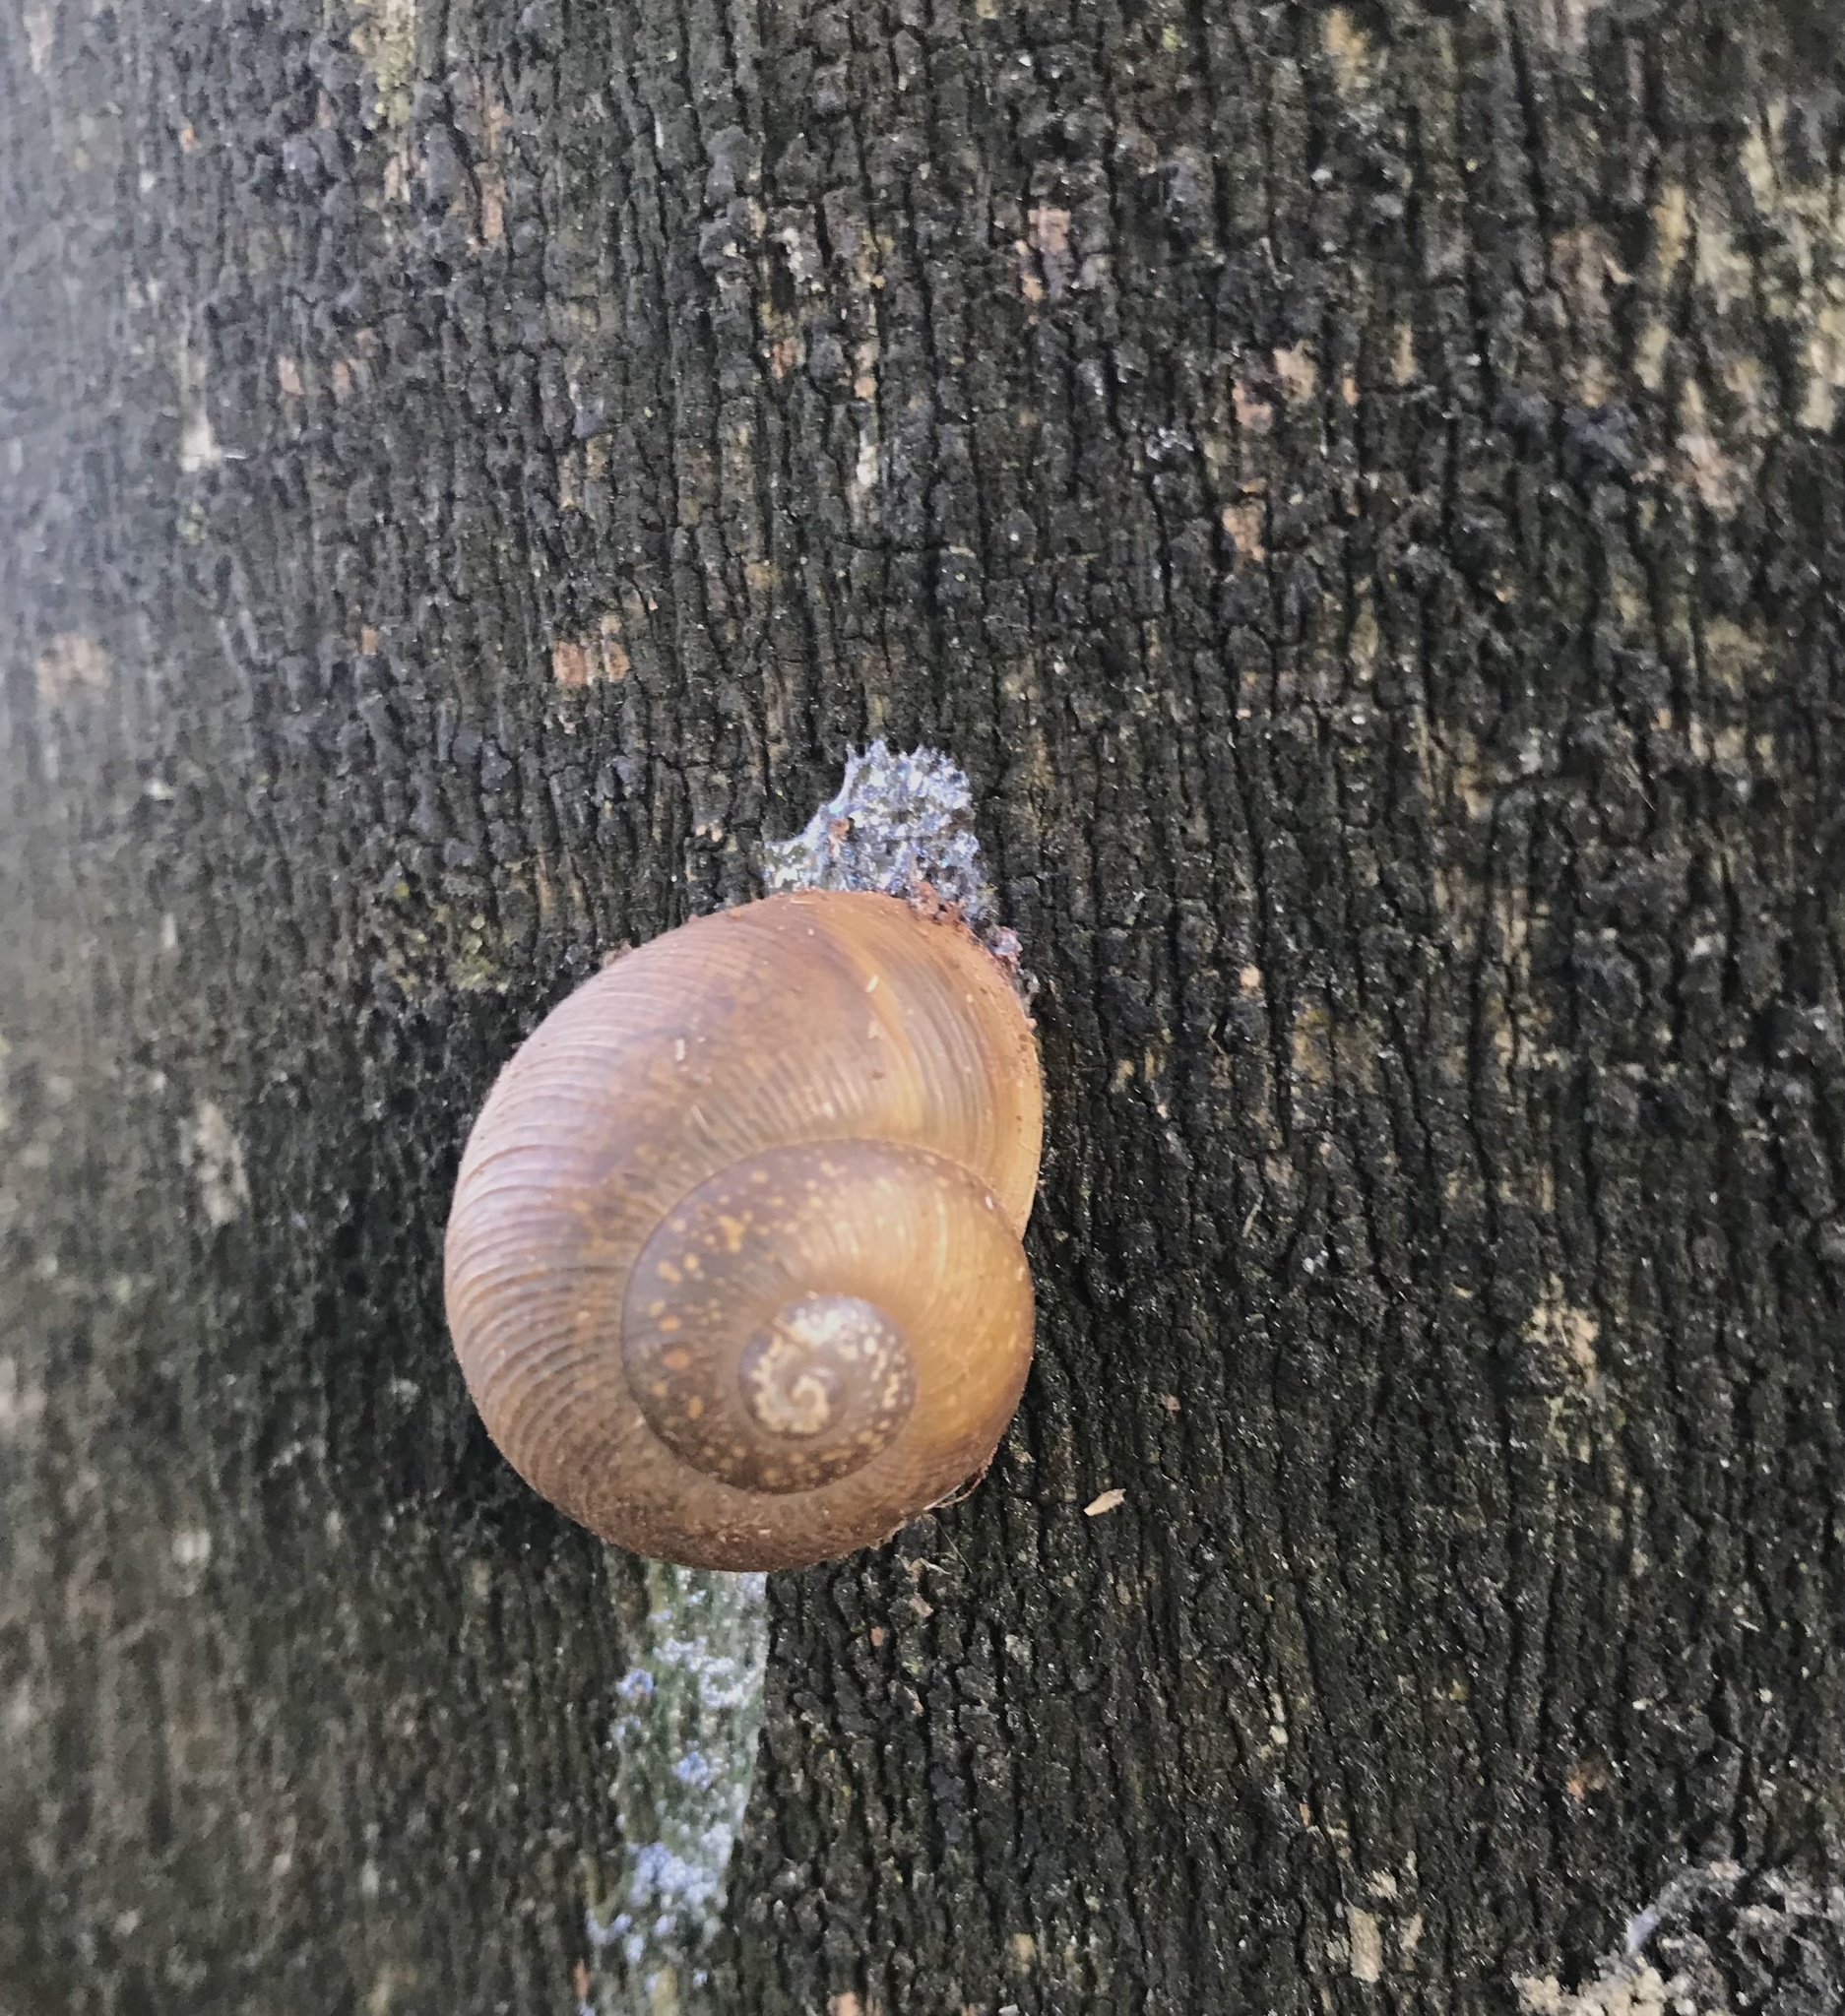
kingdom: Animalia
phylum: Mollusca
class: Gastropoda
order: Stylommatophora
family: Zachrysiidae
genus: Zachrysia
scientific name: Zachrysia provisoria
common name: Garden zachrysia
